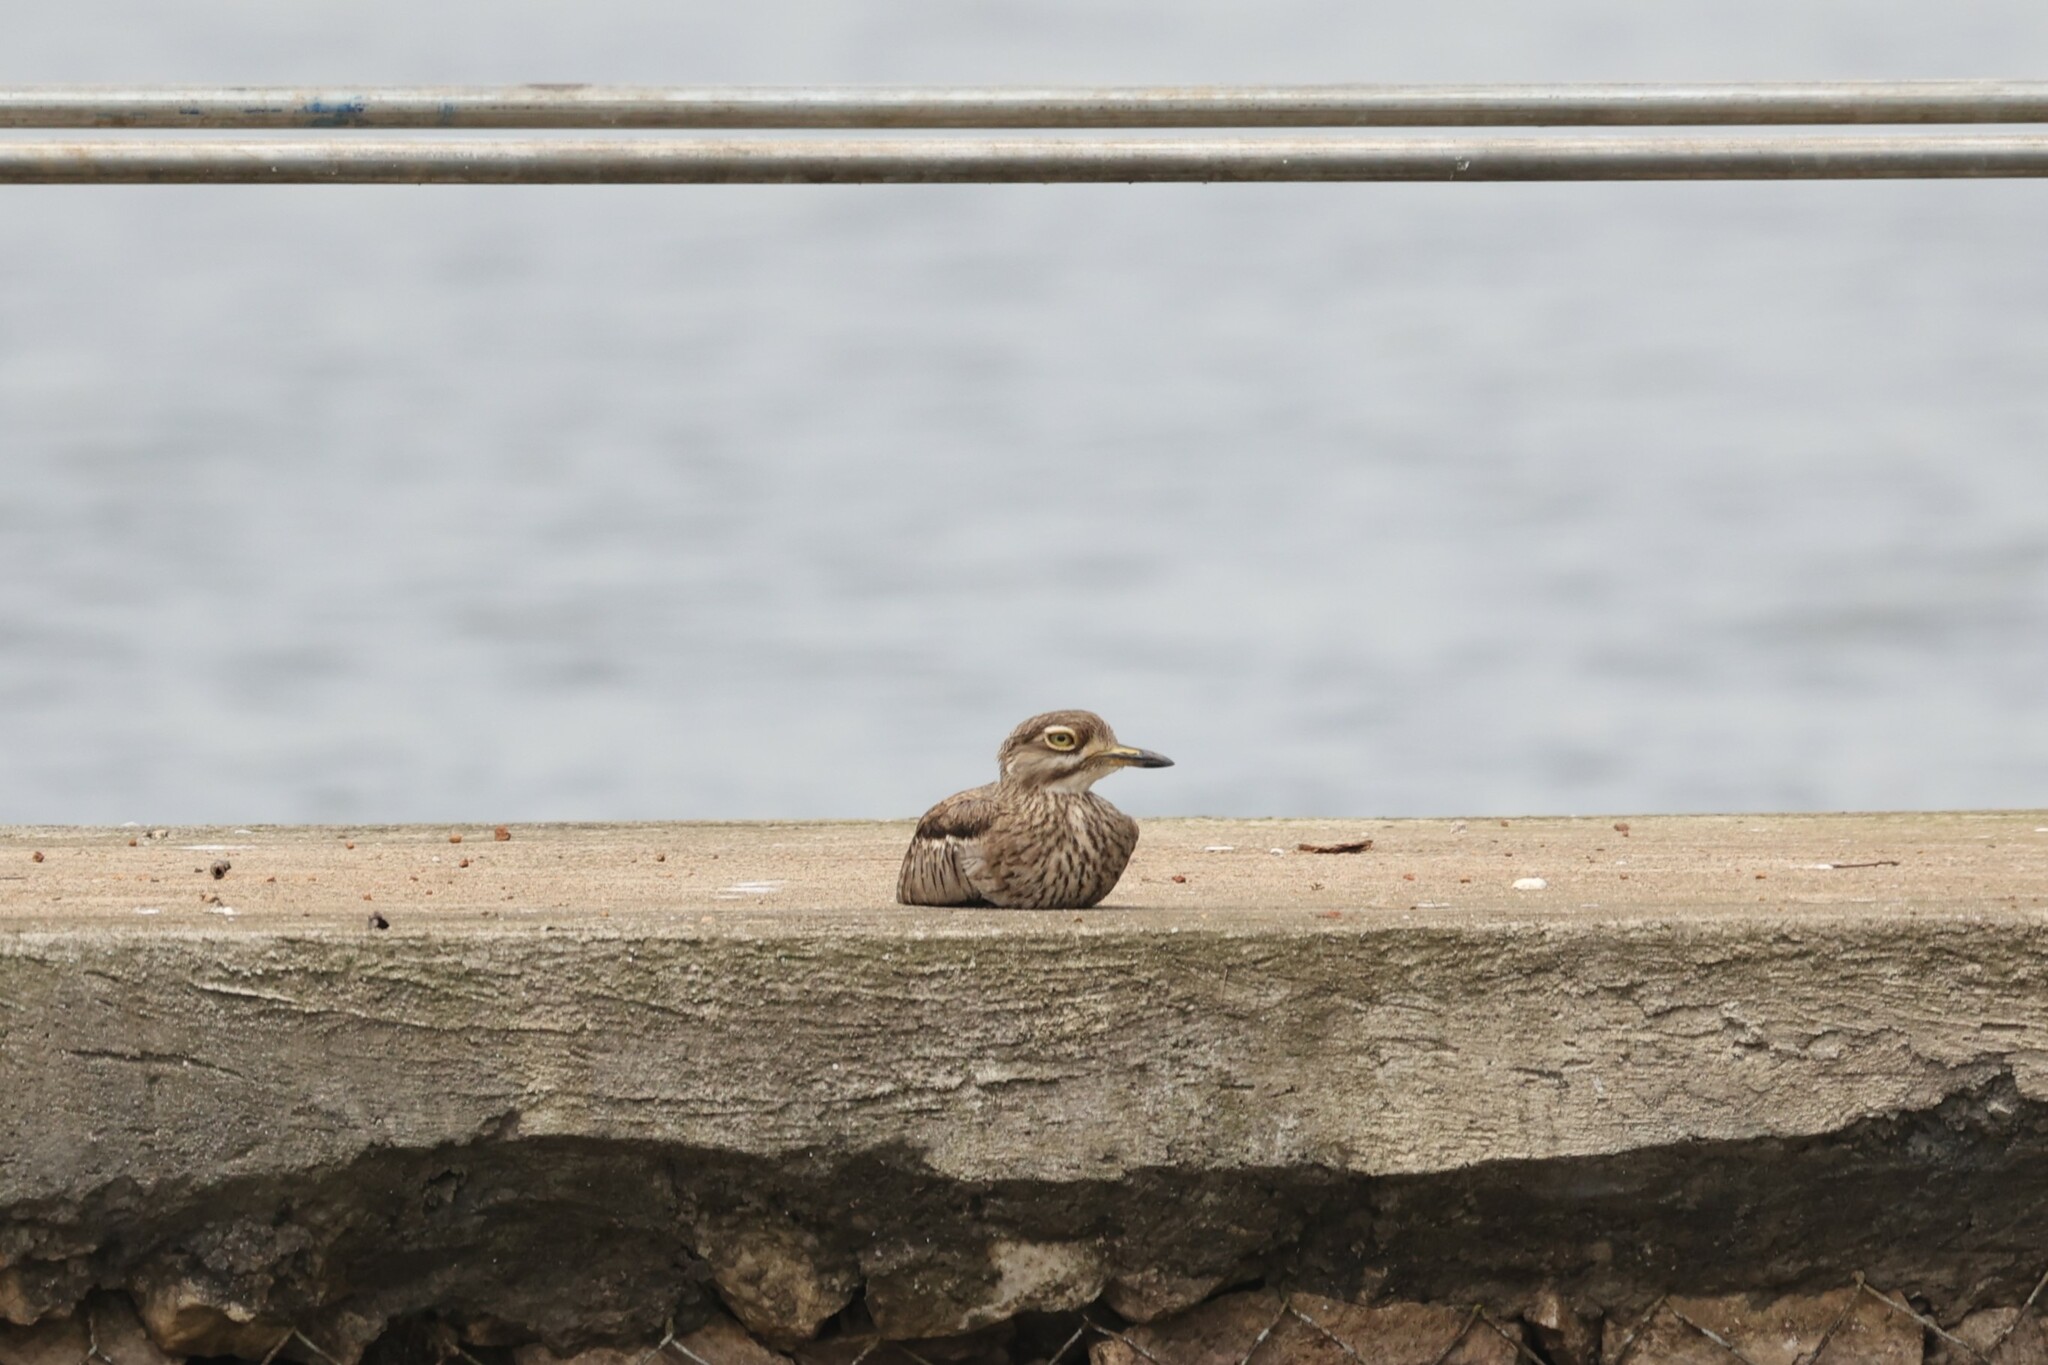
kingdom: Animalia
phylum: Chordata
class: Aves
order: Charadriiformes
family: Burhinidae
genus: Burhinus
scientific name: Burhinus vermiculatus
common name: Water thick-knee
